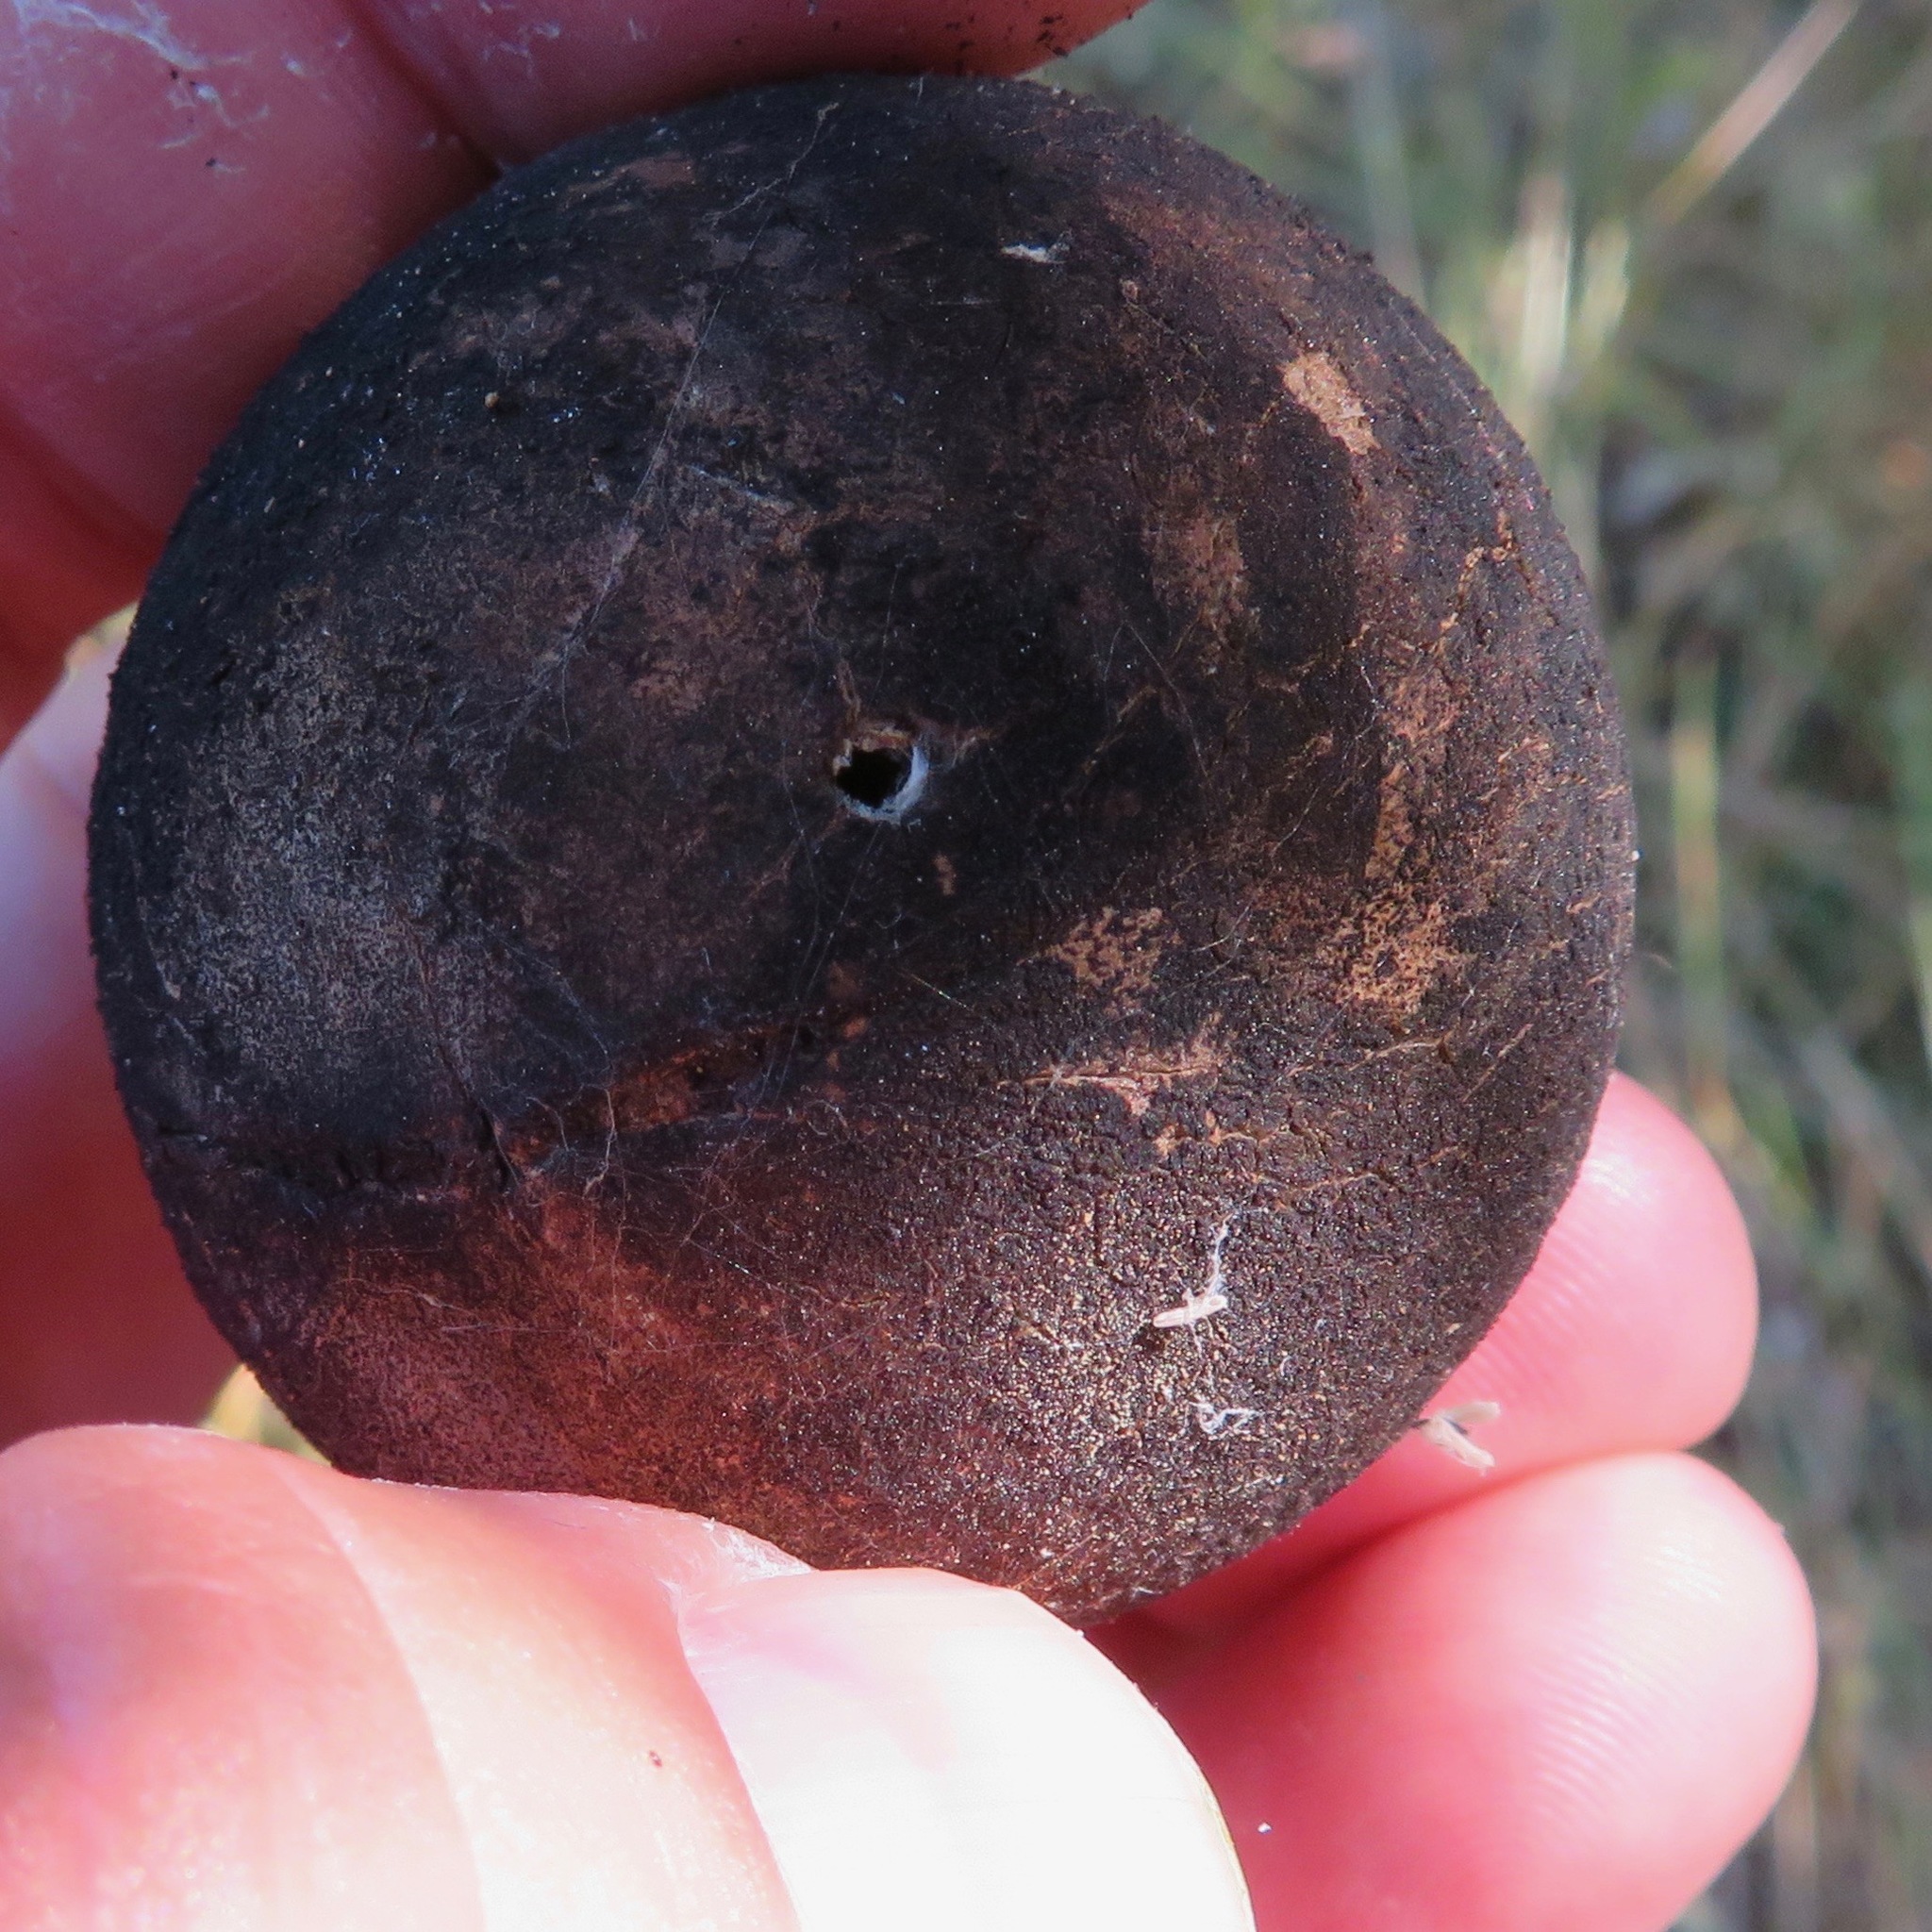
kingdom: Animalia
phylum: Arthropoda
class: Insecta
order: Hymenoptera
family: Cynipidae
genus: Andricus
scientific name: Andricus quercuscalifornicus
